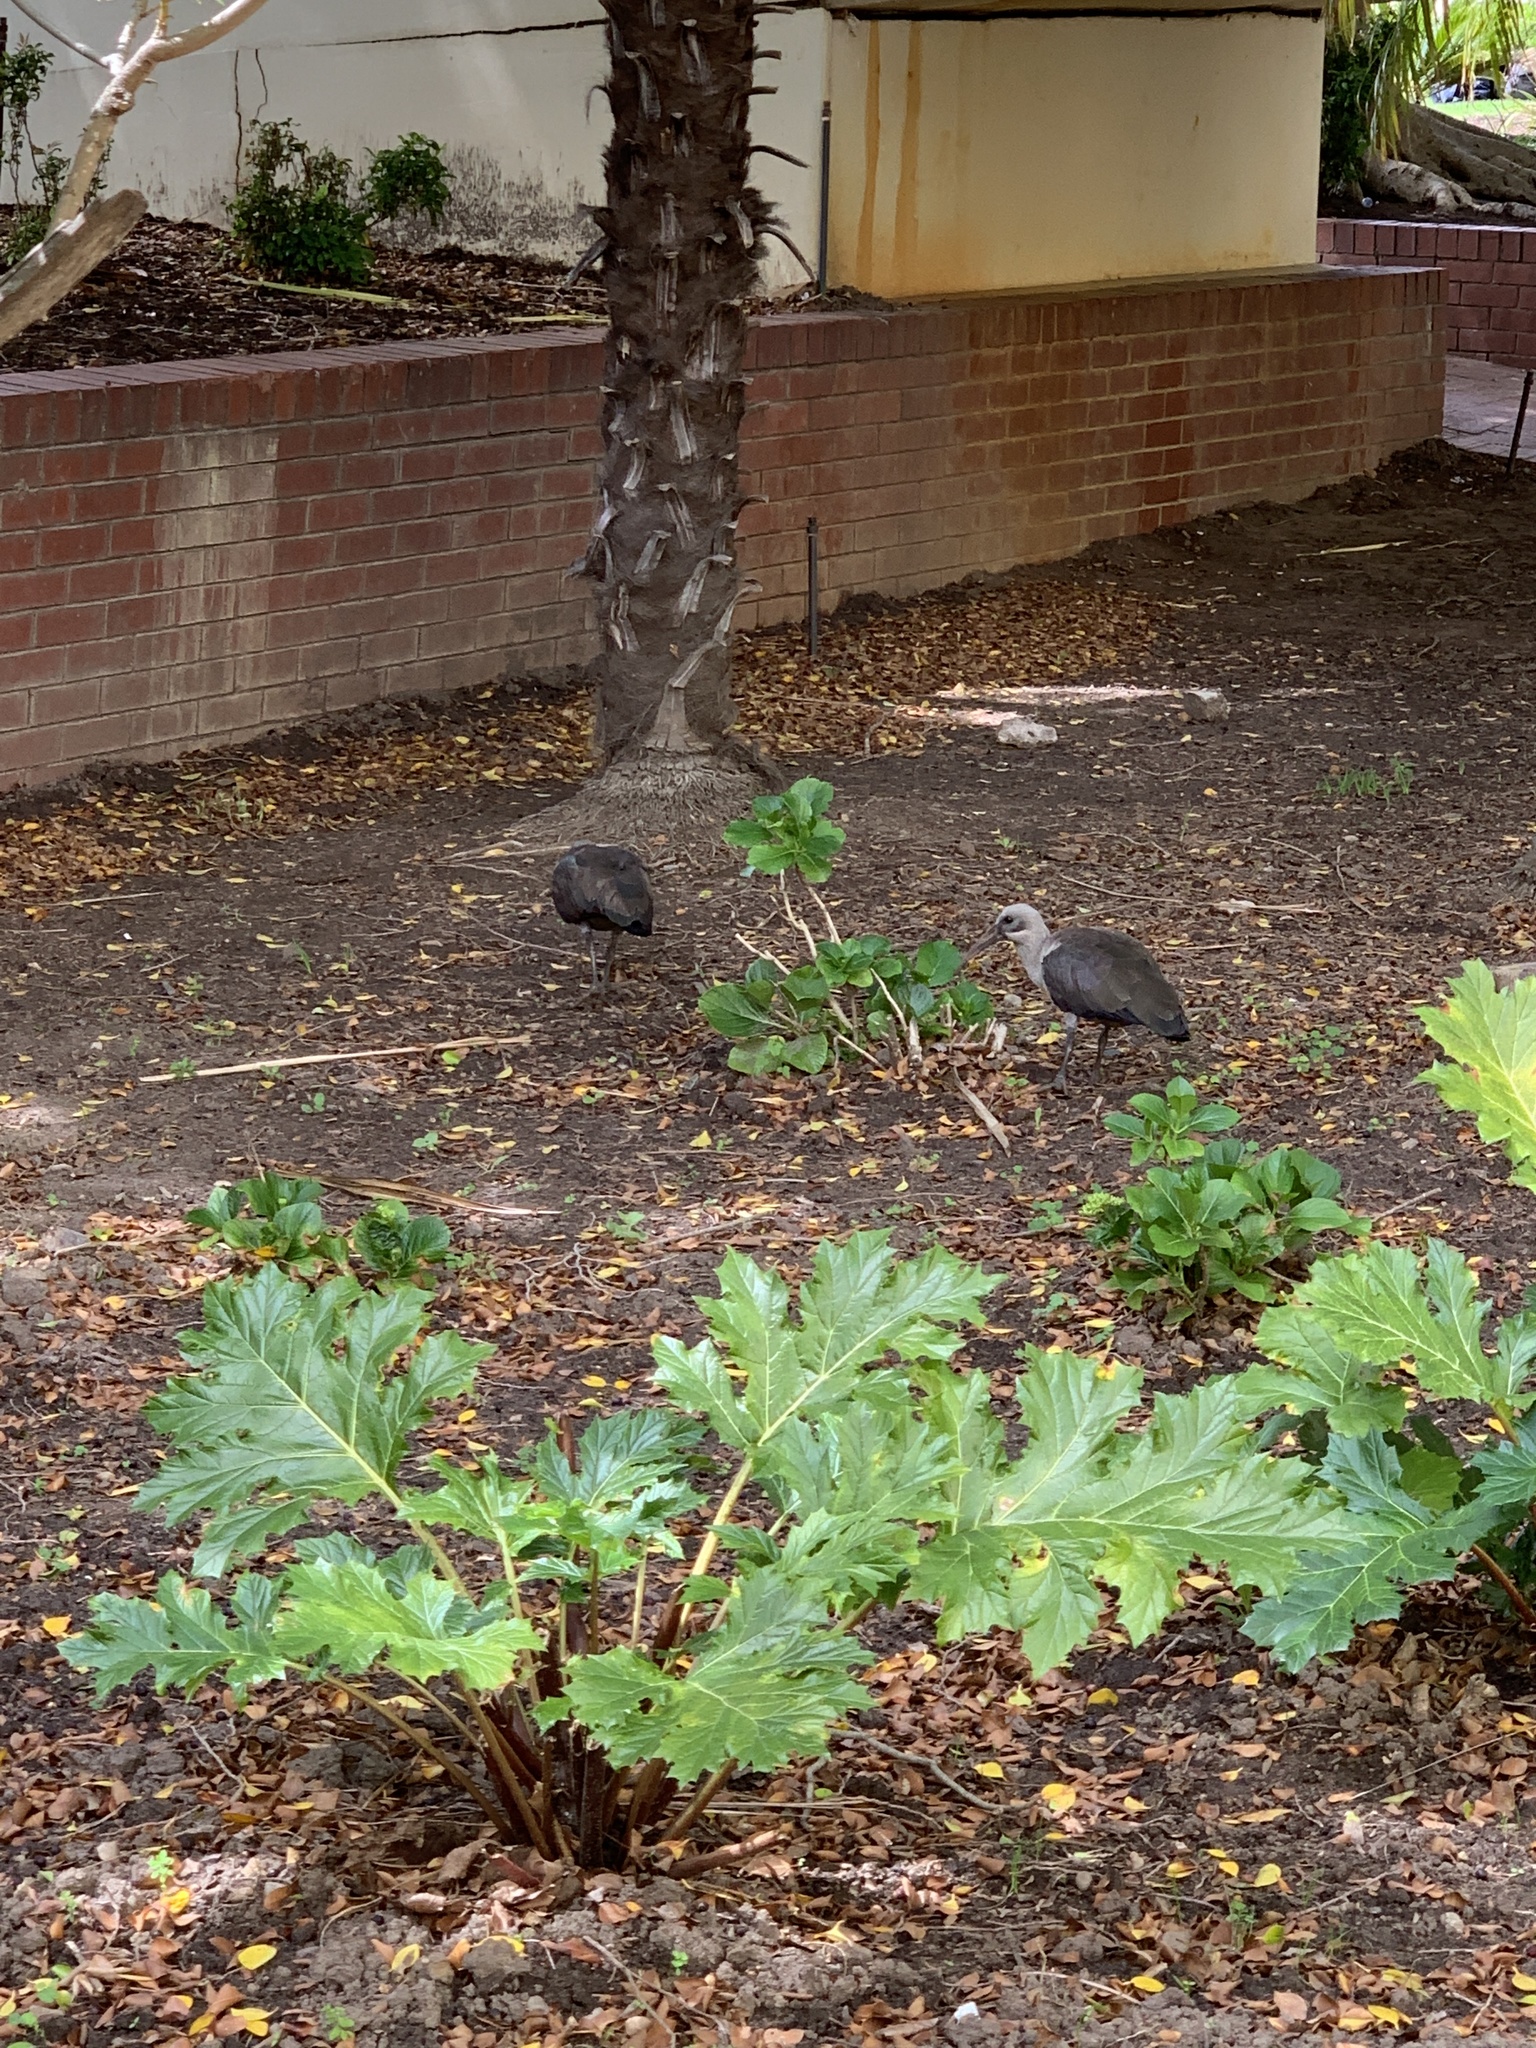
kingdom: Animalia
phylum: Chordata
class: Aves
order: Pelecaniformes
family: Threskiornithidae
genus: Bostrychia
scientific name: Bostrychia hagedash
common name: Hadada ibis
